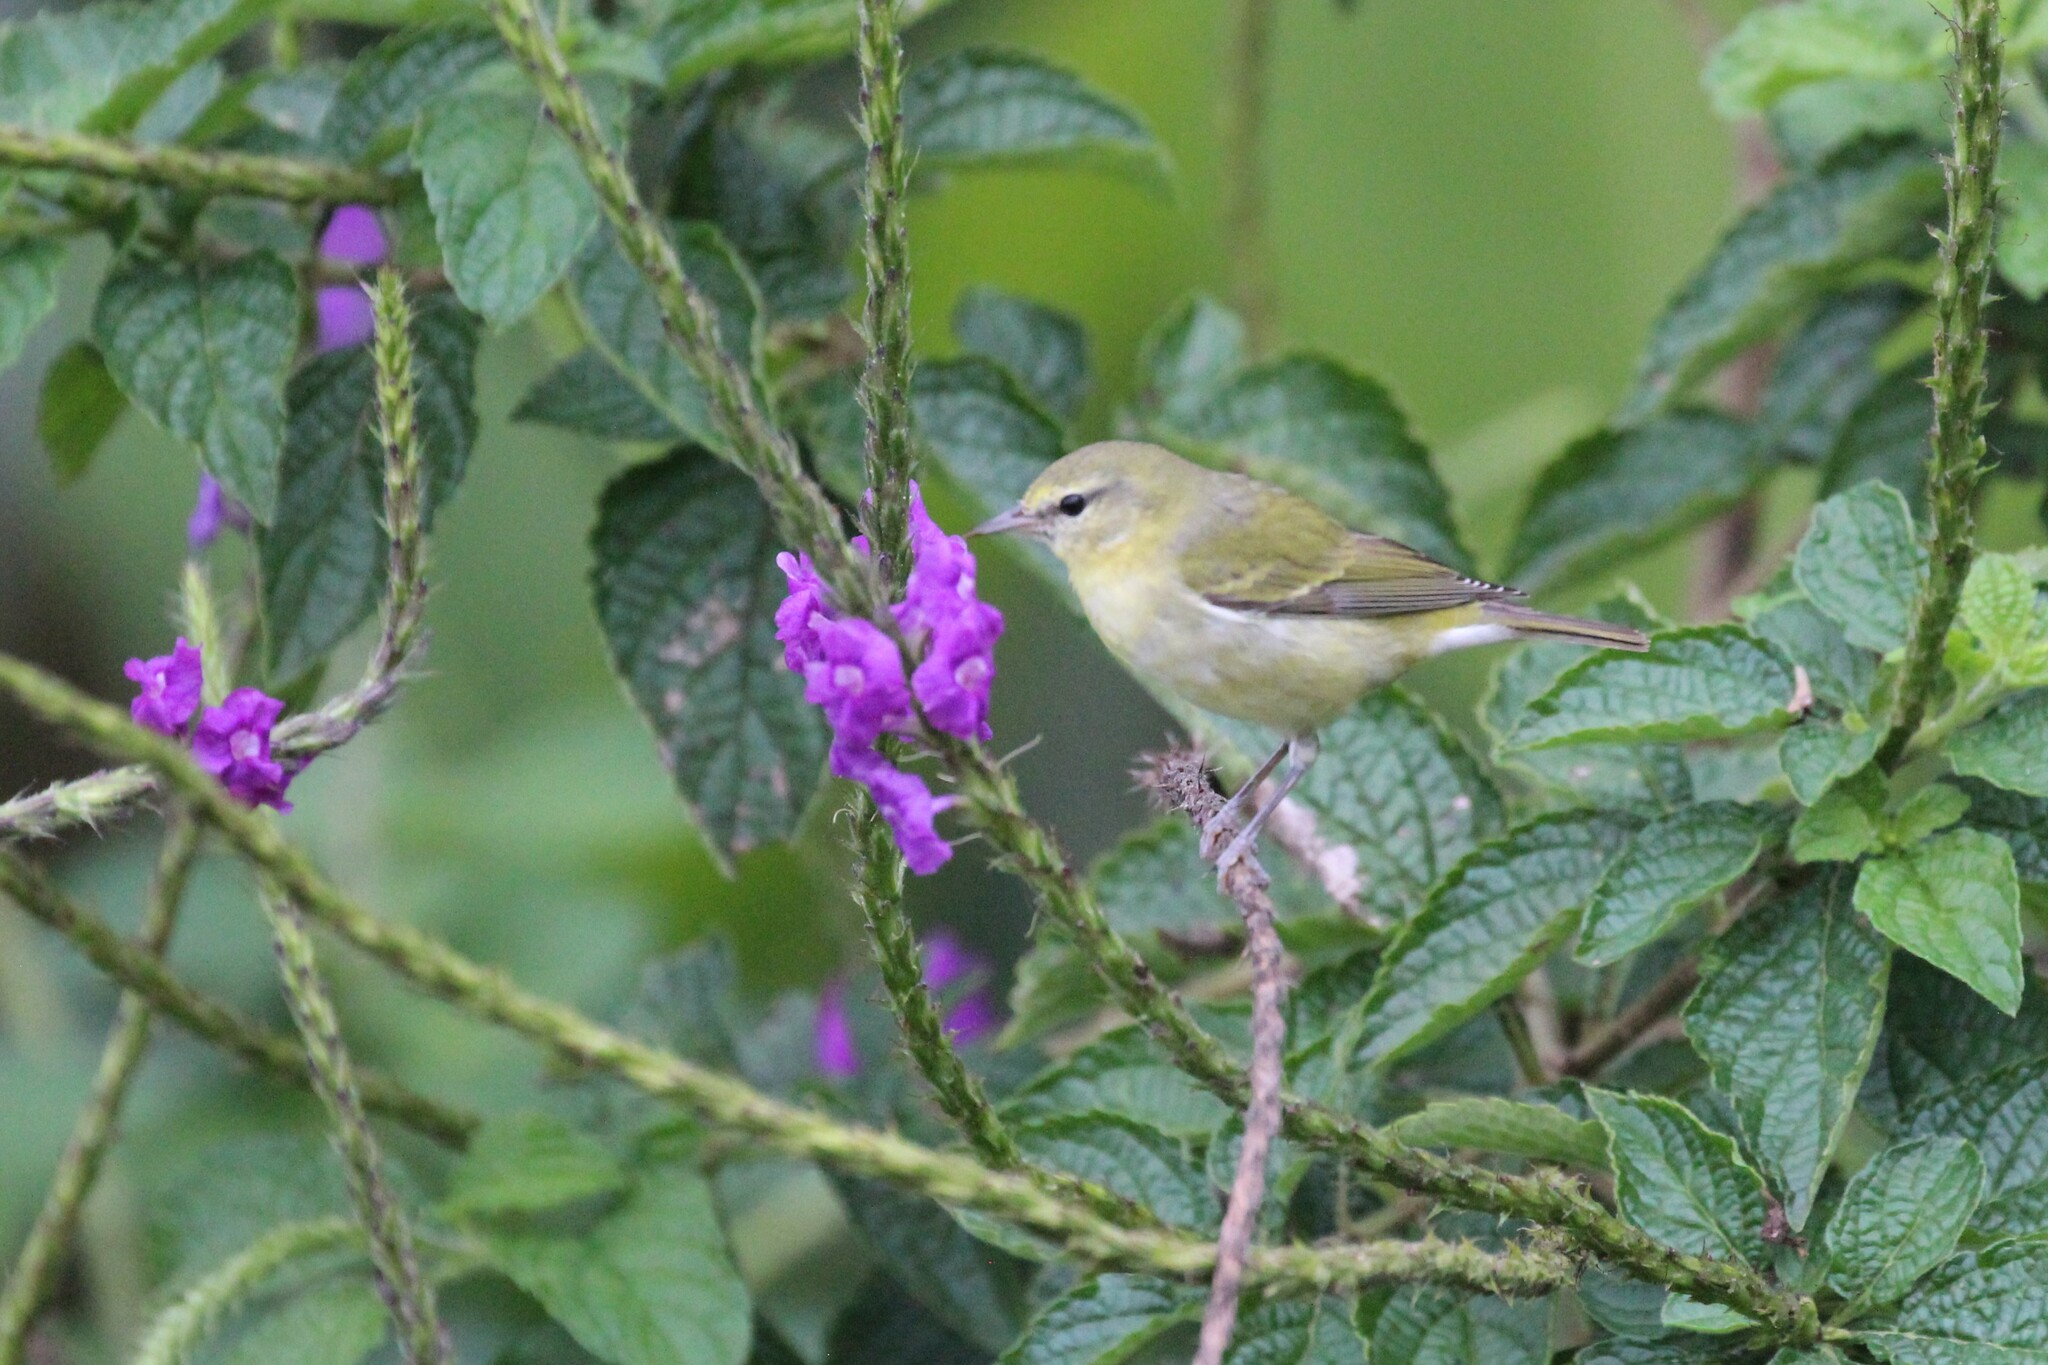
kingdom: Animalia
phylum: Chordata
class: Aves
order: Passeriformes
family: Parulidae
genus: Leiothlypis
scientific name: Leiothlypis peregrina
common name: Tennessee warbler
